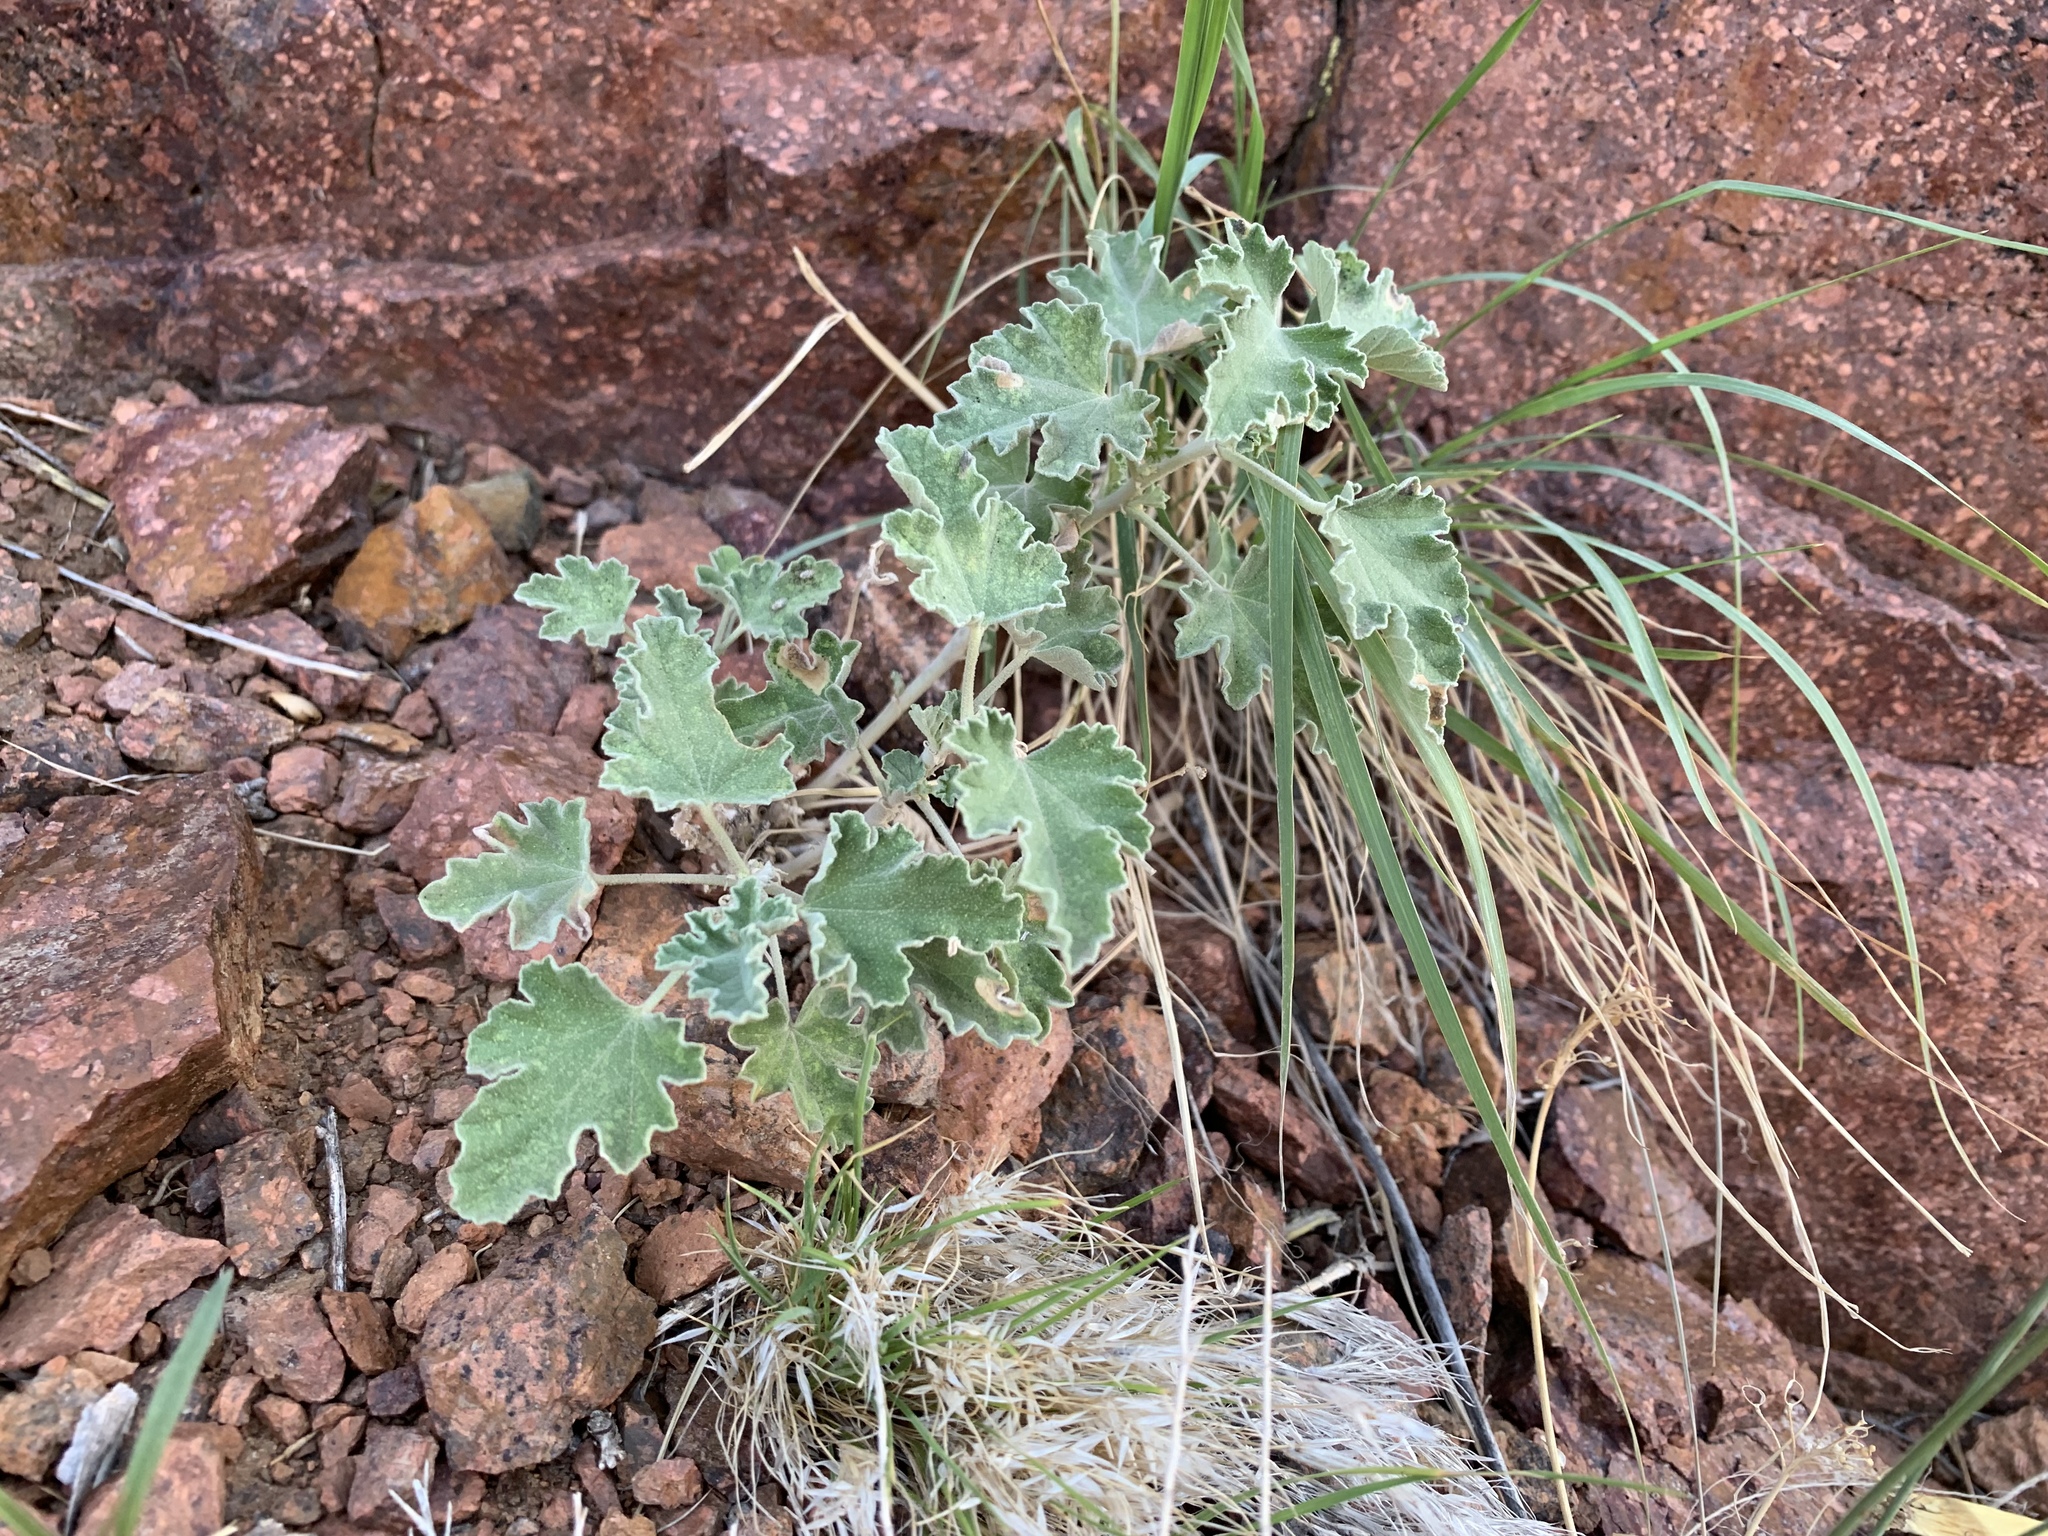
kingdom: Plantae
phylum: Tracheophyta
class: Magnoliopsida
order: Malvales
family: Malvaceae
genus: Sphaeralcea
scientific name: Sphaeralcea ambigua
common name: Apricot globe-mallow
